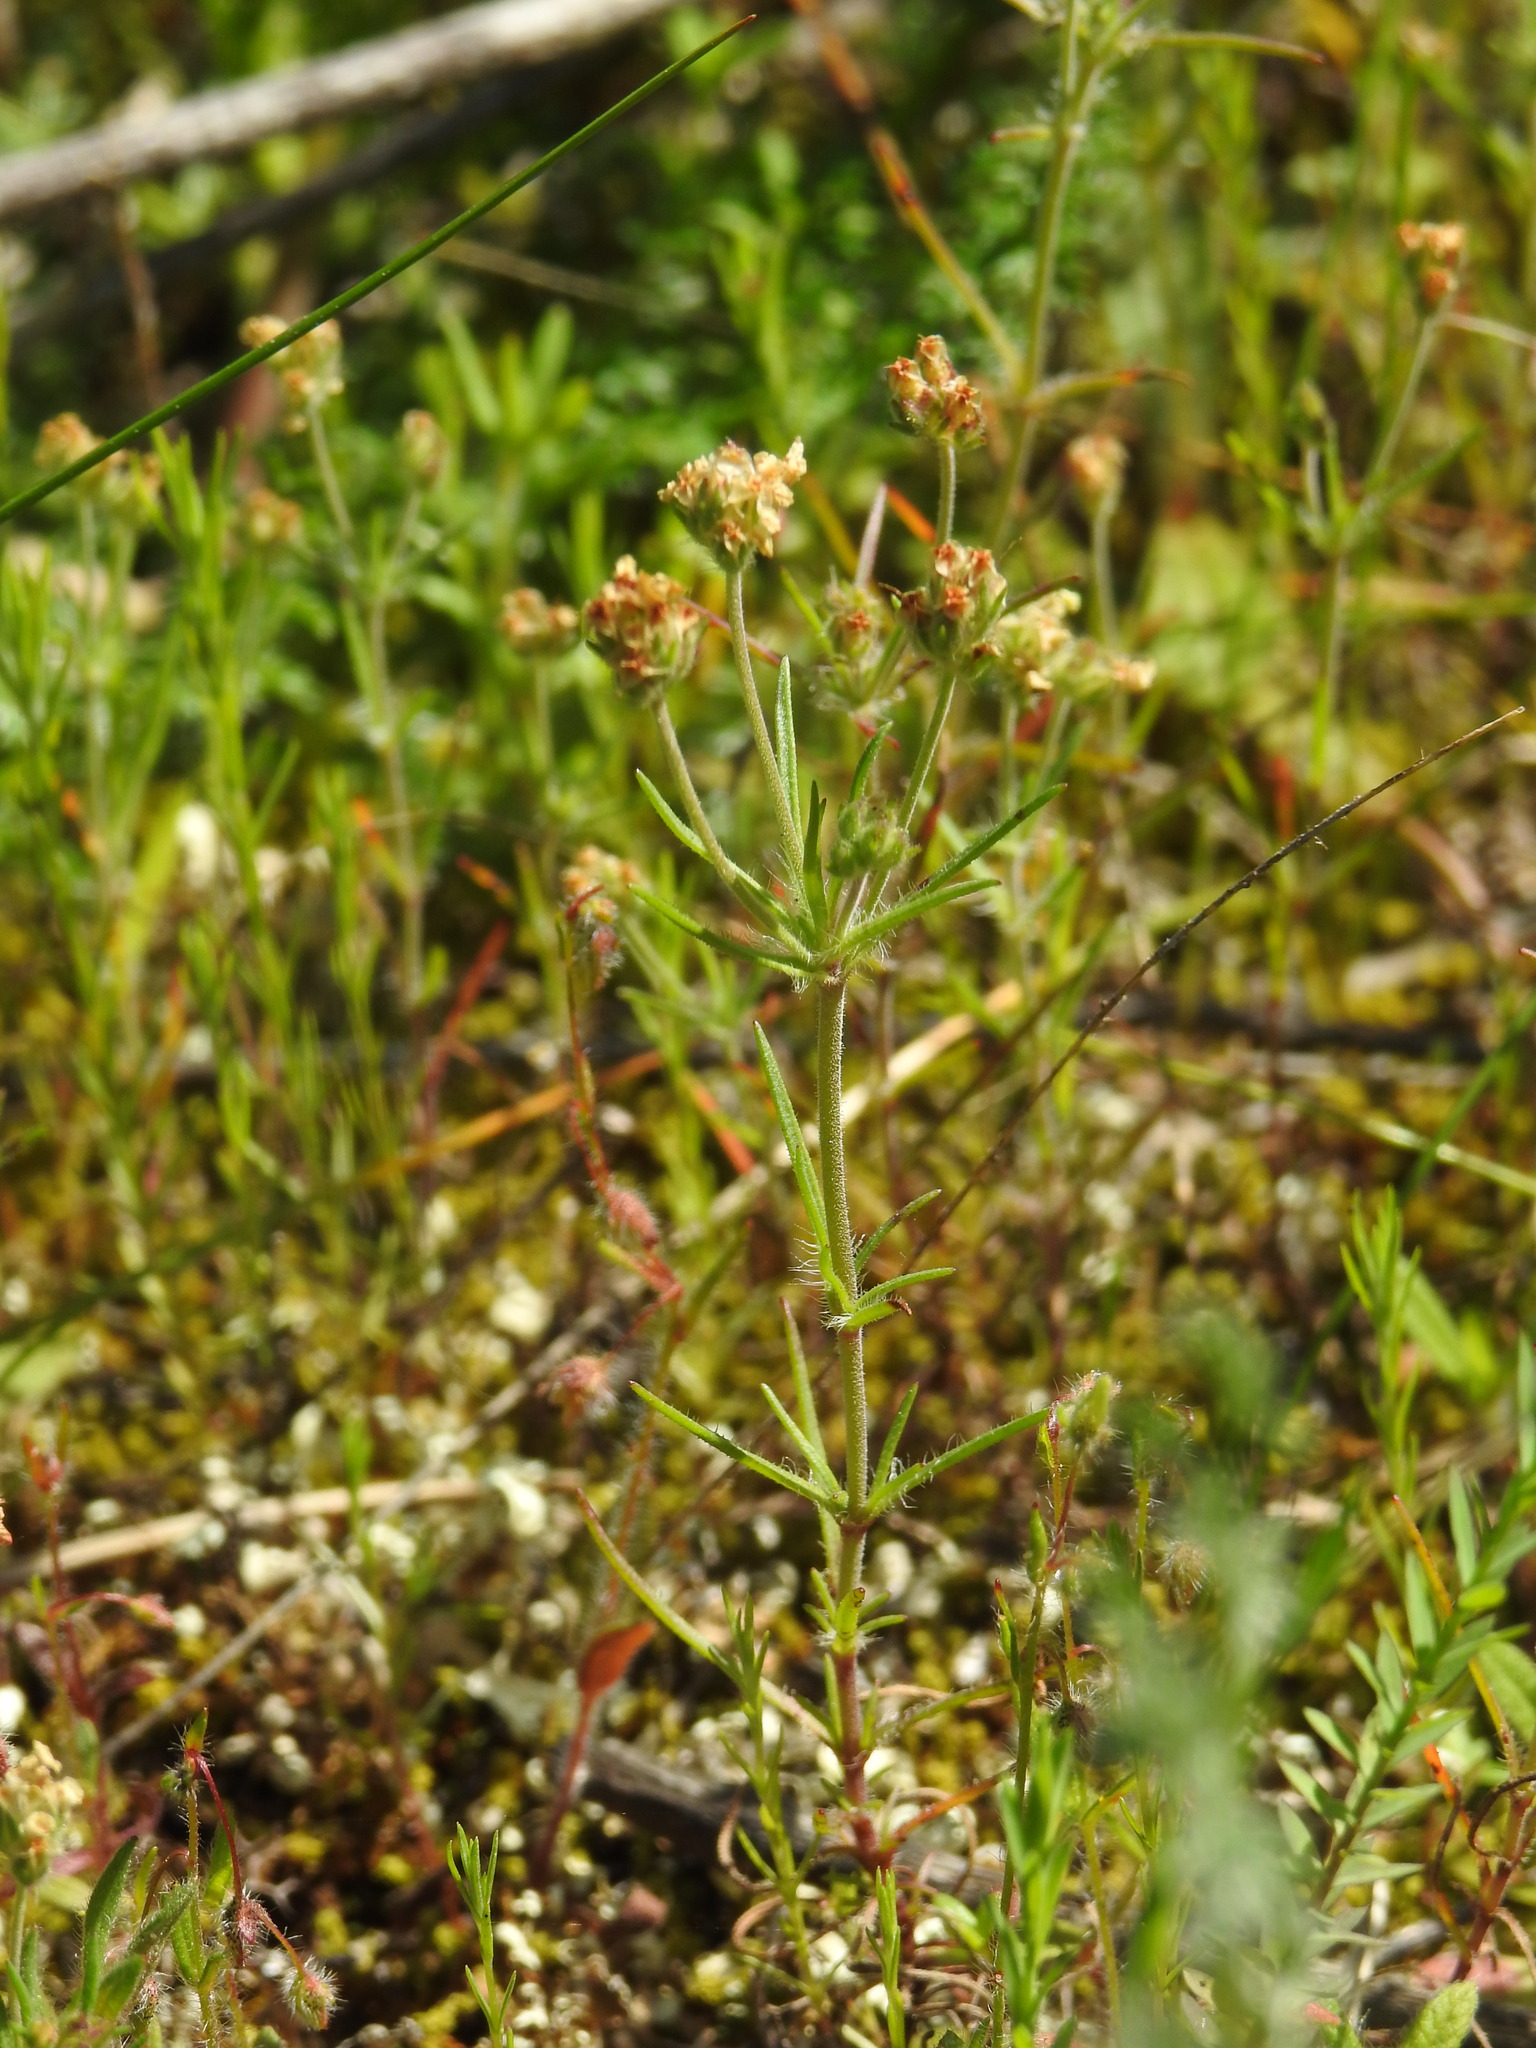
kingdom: Plantae
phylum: Tracheophyta
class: Magnoliopsida
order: Lamiales
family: Plantaginaceae
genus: Plantago
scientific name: Plantago afra
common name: Glandular plantain
